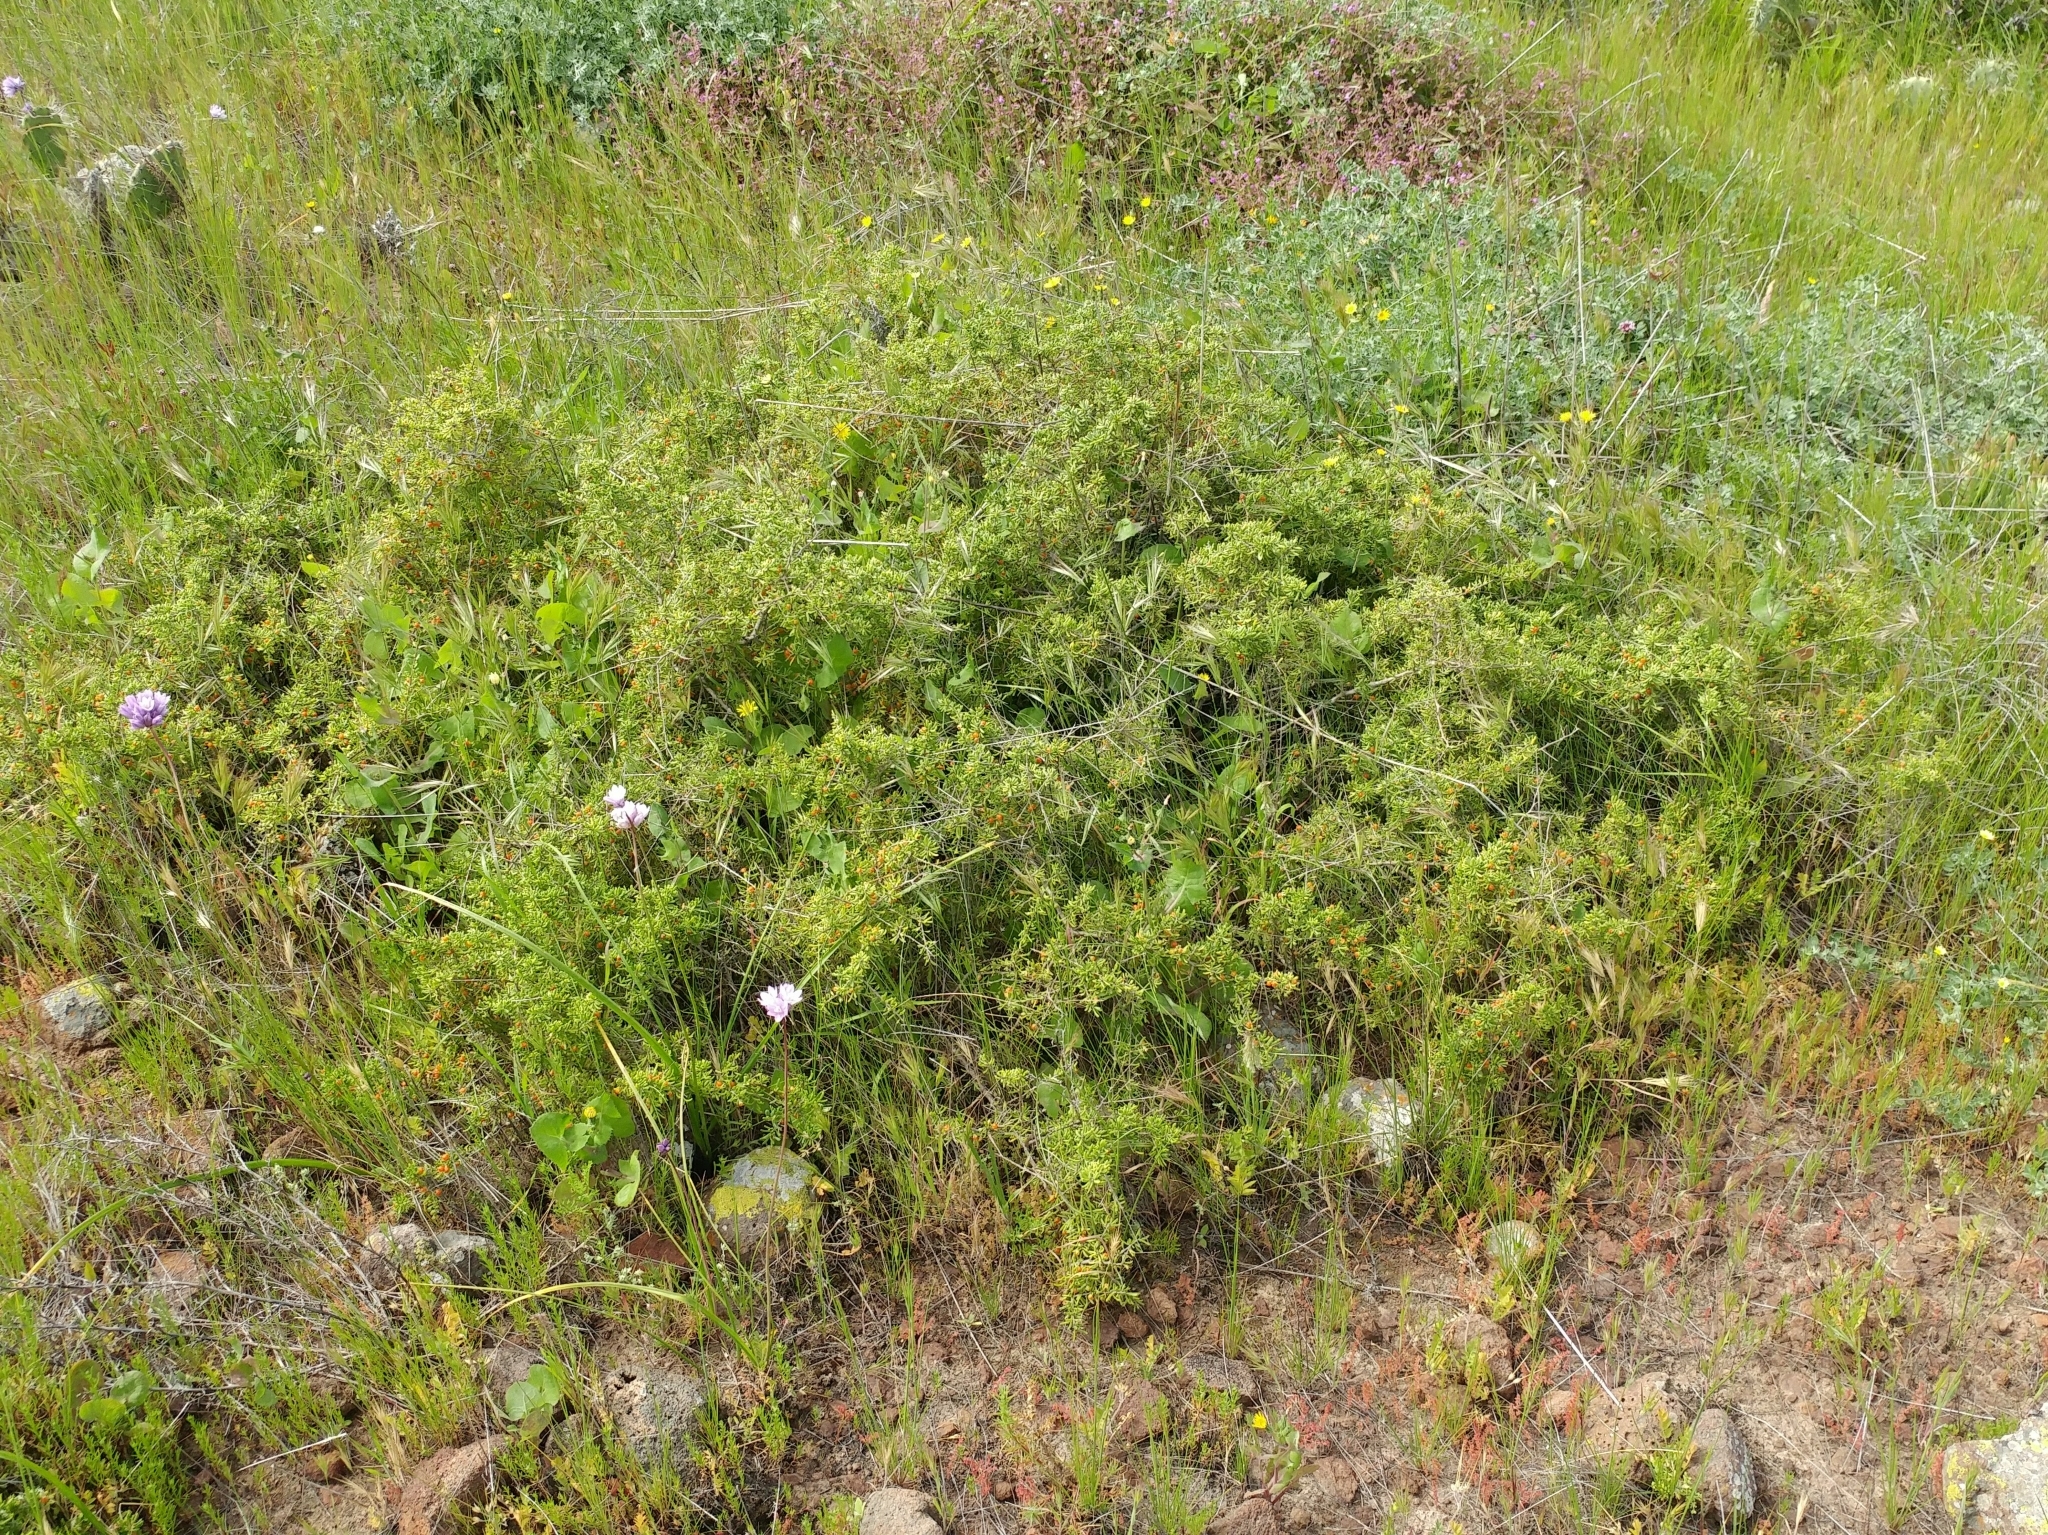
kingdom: Plantae
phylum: Tracheophyta
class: Magnoliopsida
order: Solanales
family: Solanaceae
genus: Lycium
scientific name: Lycium californicum
